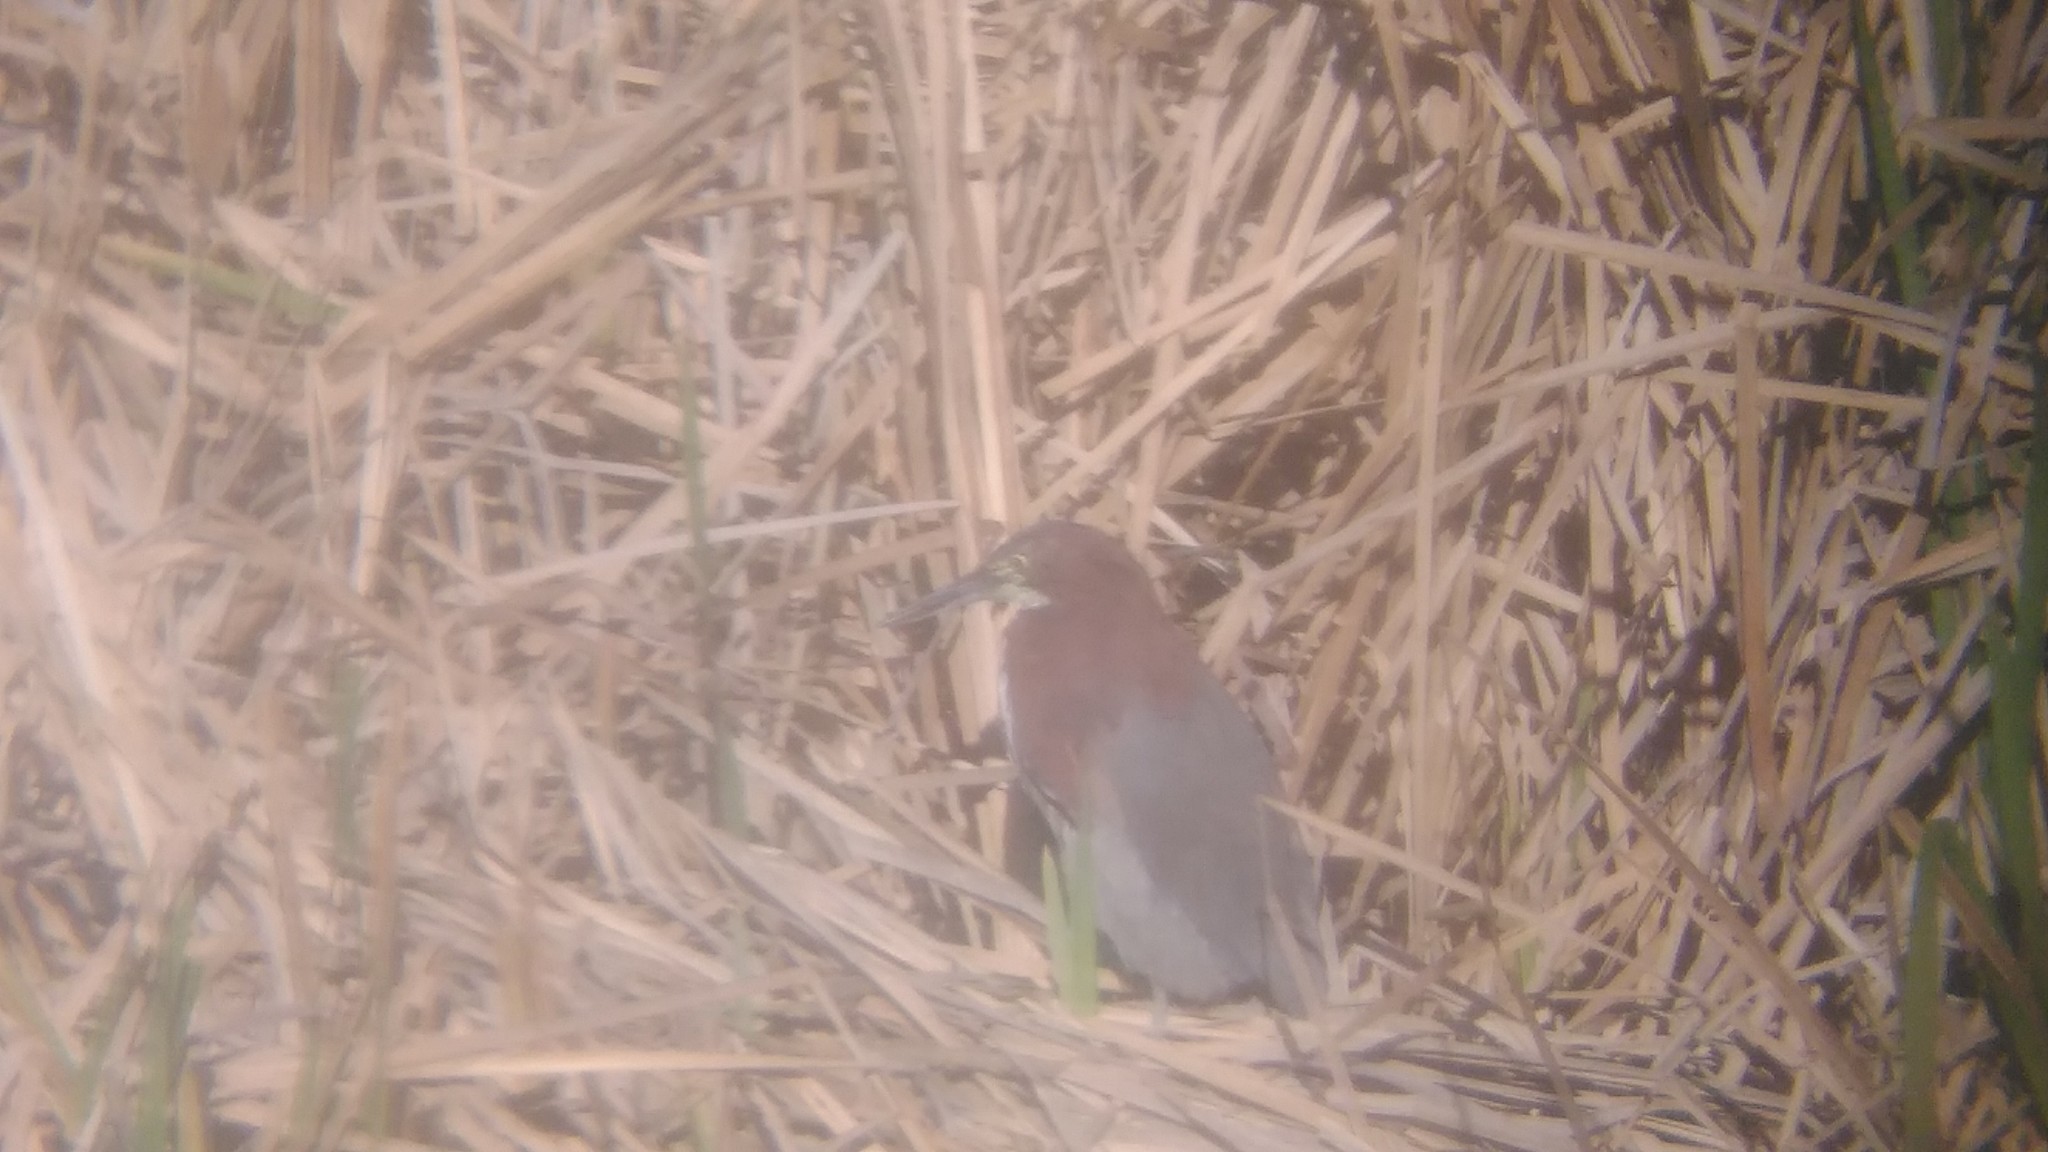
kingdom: Animalia
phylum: Chordata
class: Aves
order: Pelecaniformes
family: Ardeidae
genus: Tigrisoma
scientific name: Tigrisoma lineatum
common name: Rufescent tiger-heron
